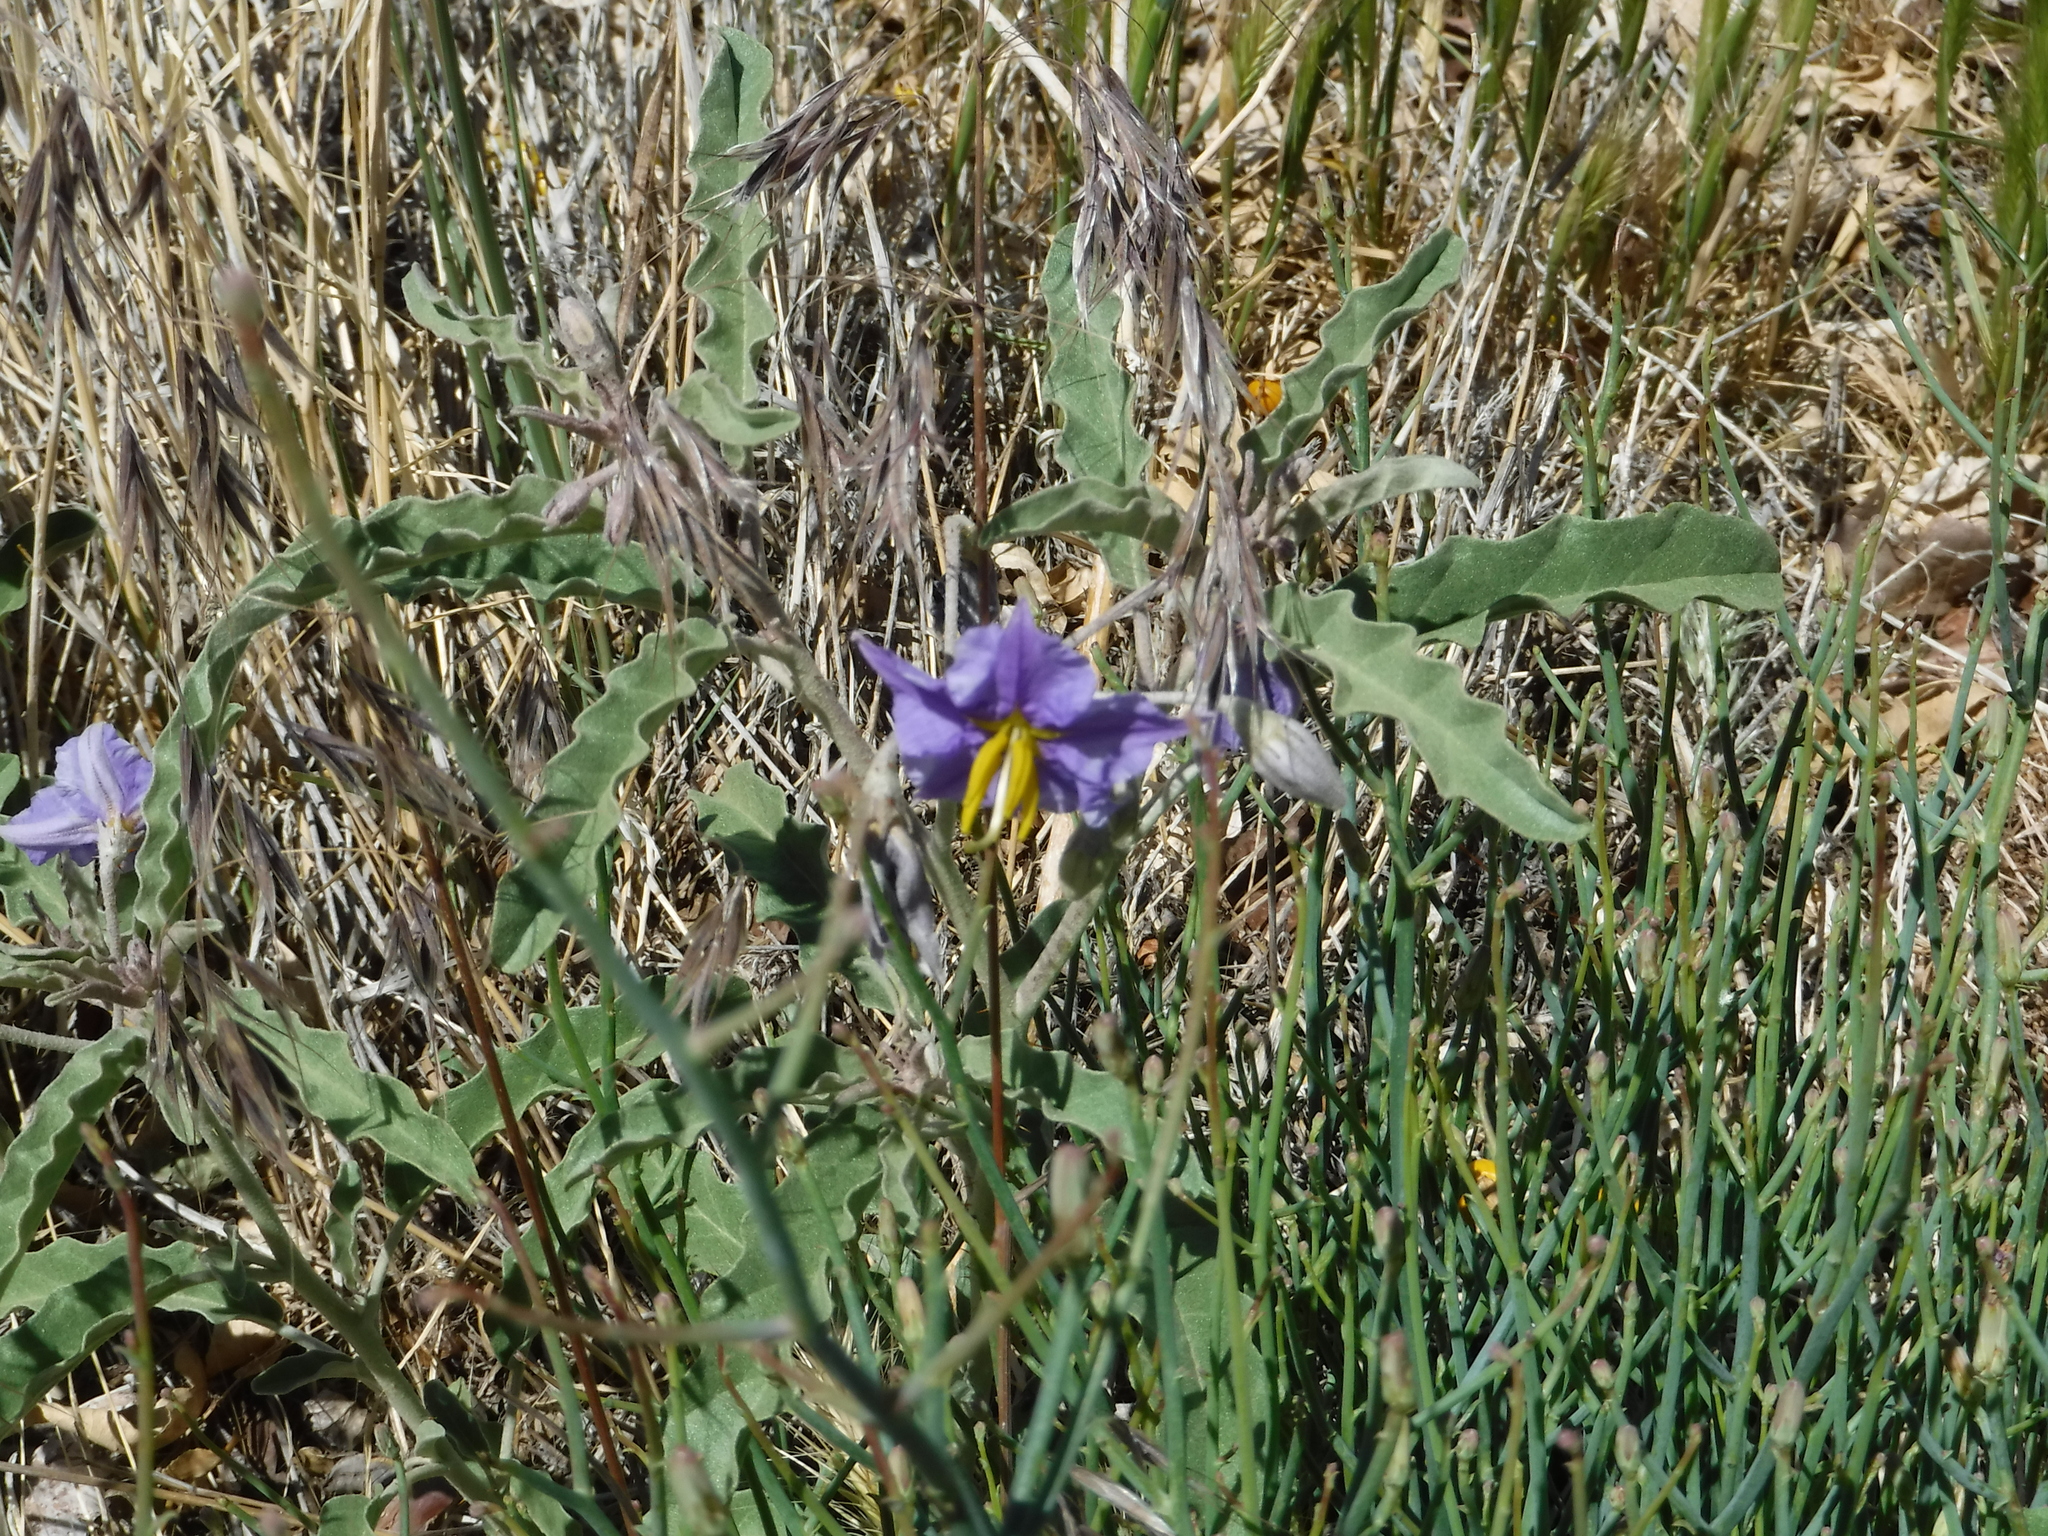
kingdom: Plantae
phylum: Tracheophyta
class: Magnoliopsida
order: Solanales
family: Solanaceae
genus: Solanum
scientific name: Solanum elaeagnifolium
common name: Silverleaf nightshade
